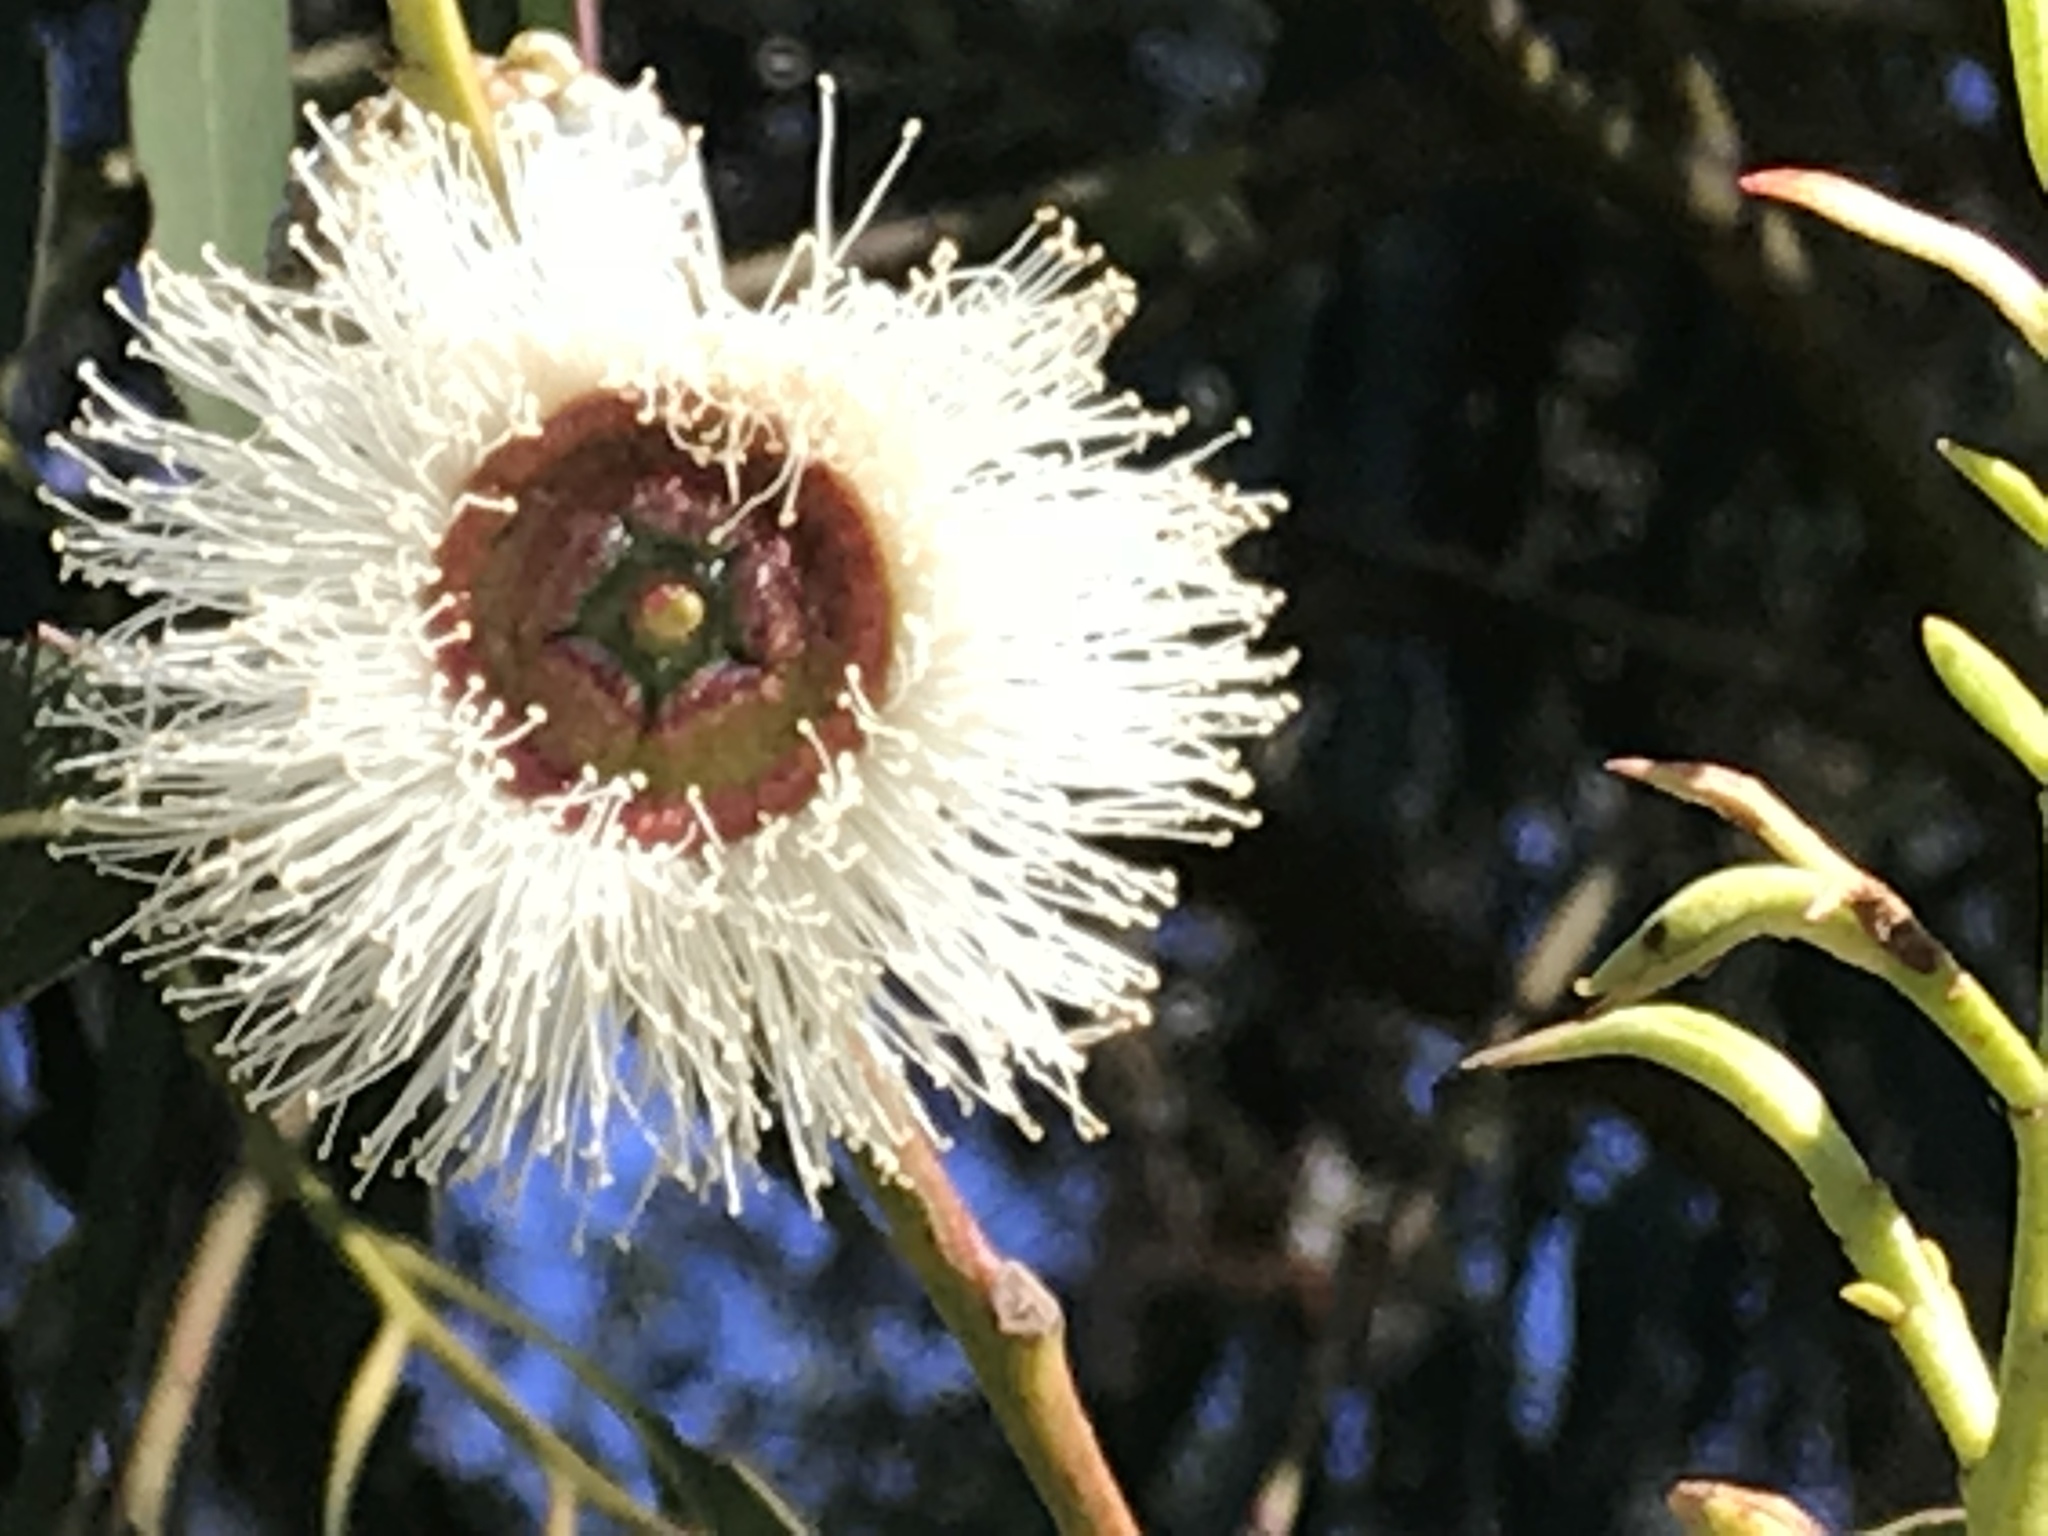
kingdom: Plantae
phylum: Tracheophyta
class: Magnoliopsida
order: Myrtales
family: Myrtaceae
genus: Eucalyptus
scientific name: Eucalyptus globulus
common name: Southern blue-gum
